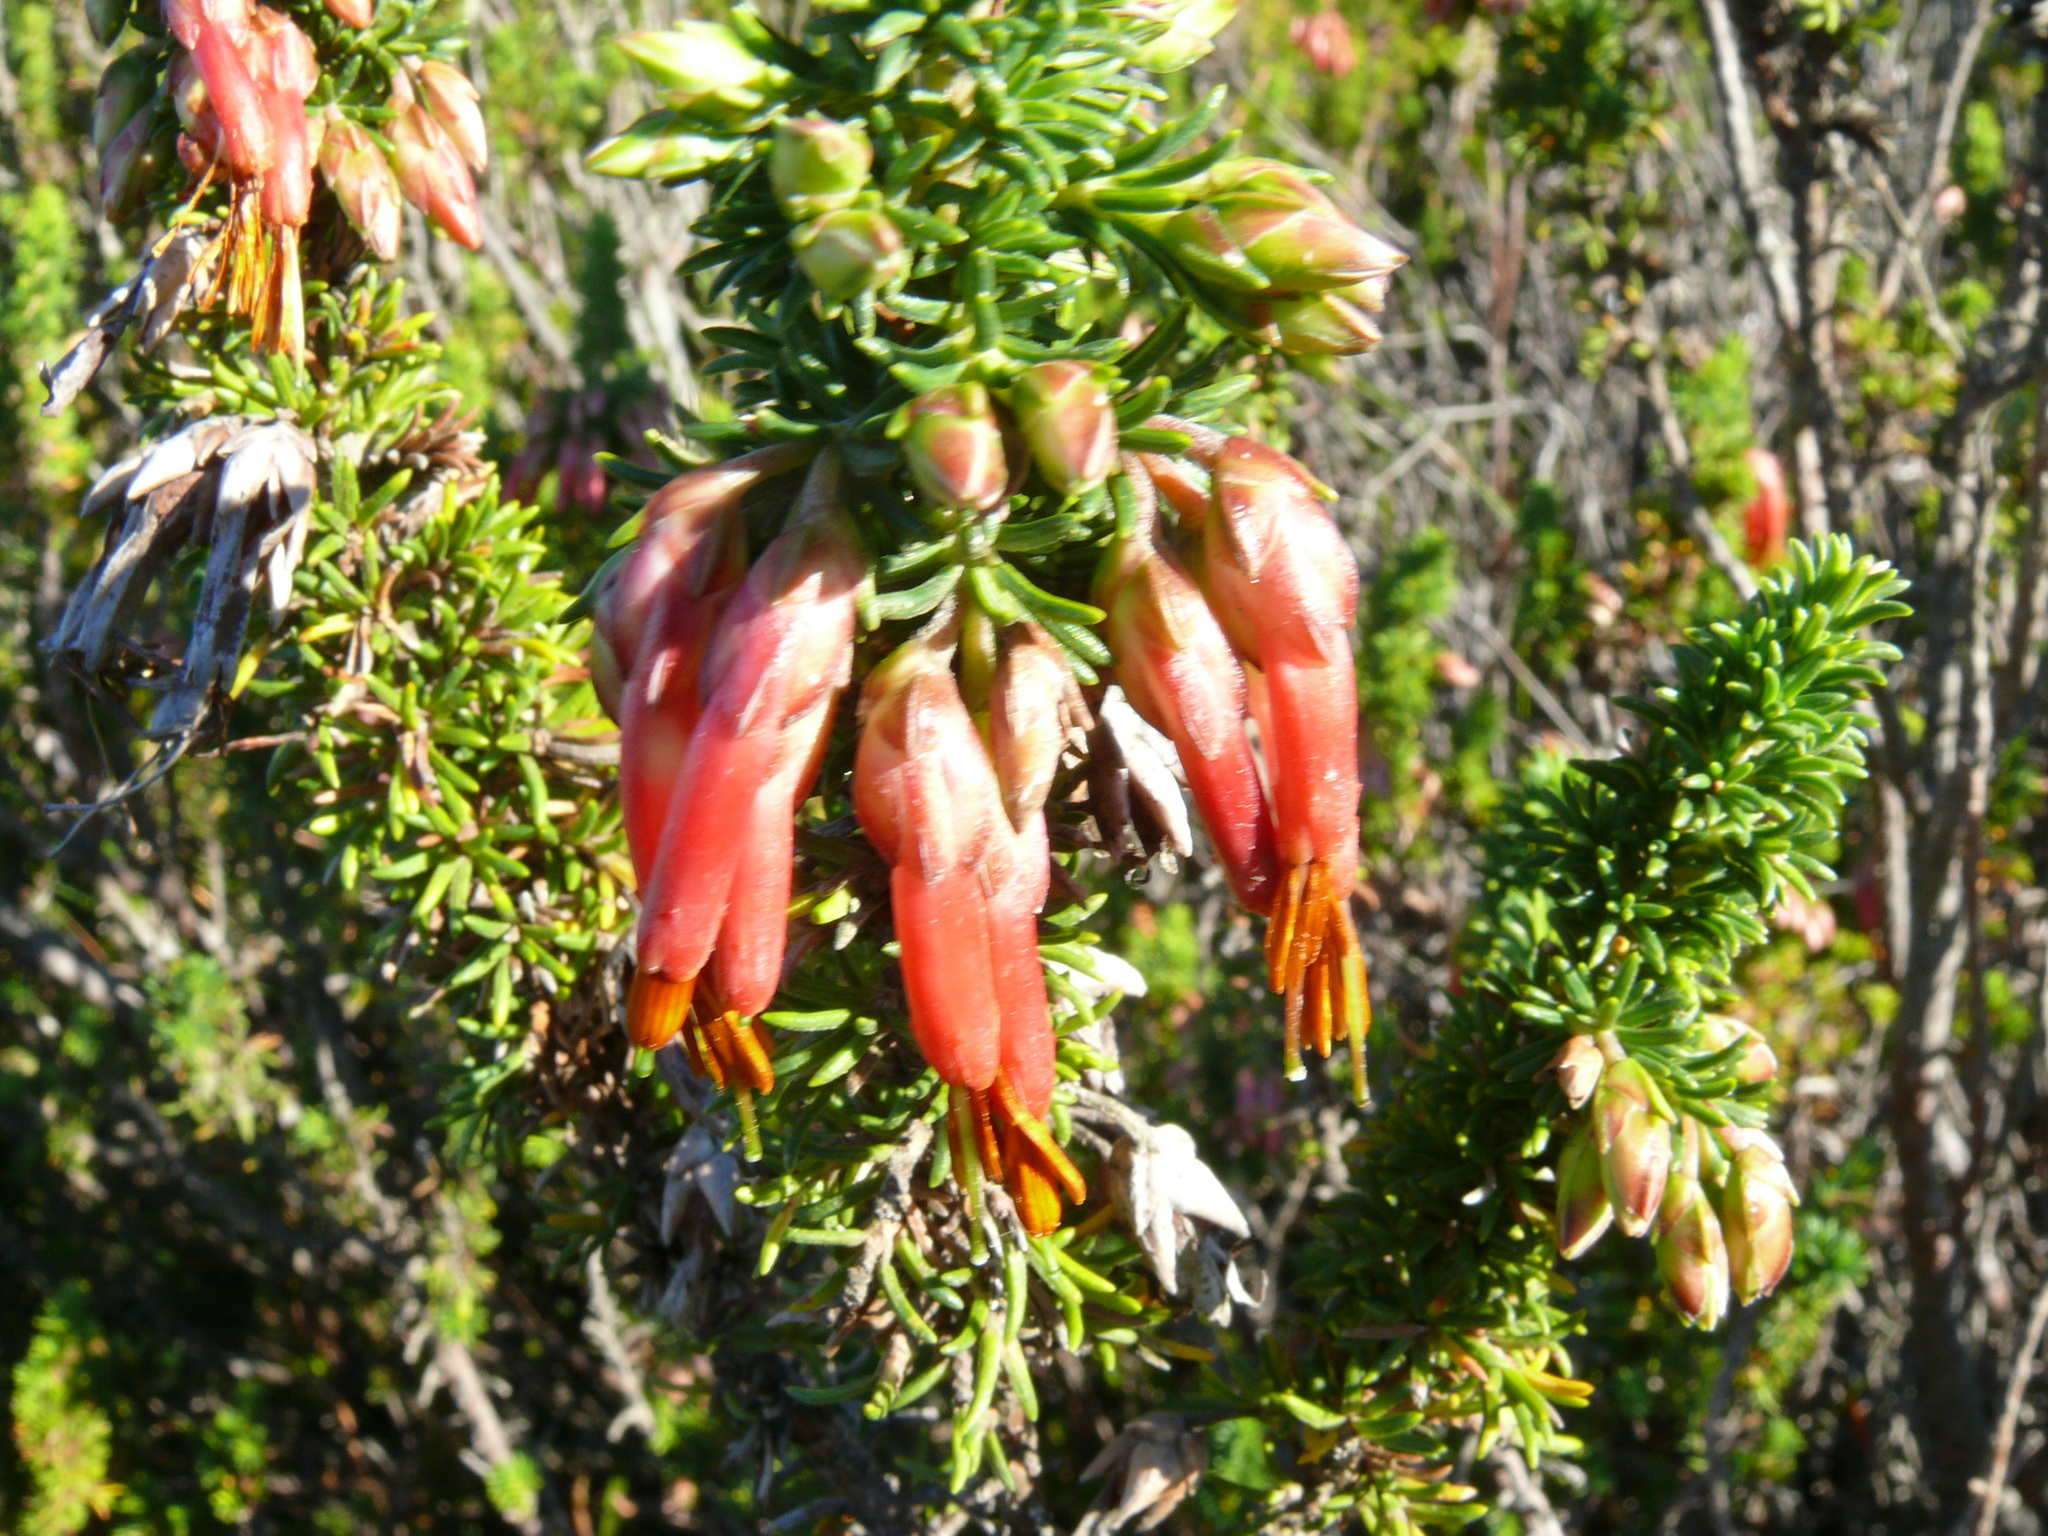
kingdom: Plantae
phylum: Tracheophyta
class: Magnoliopsida
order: Ericales
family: Ericaceae
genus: Erica
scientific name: Erica coccinea
